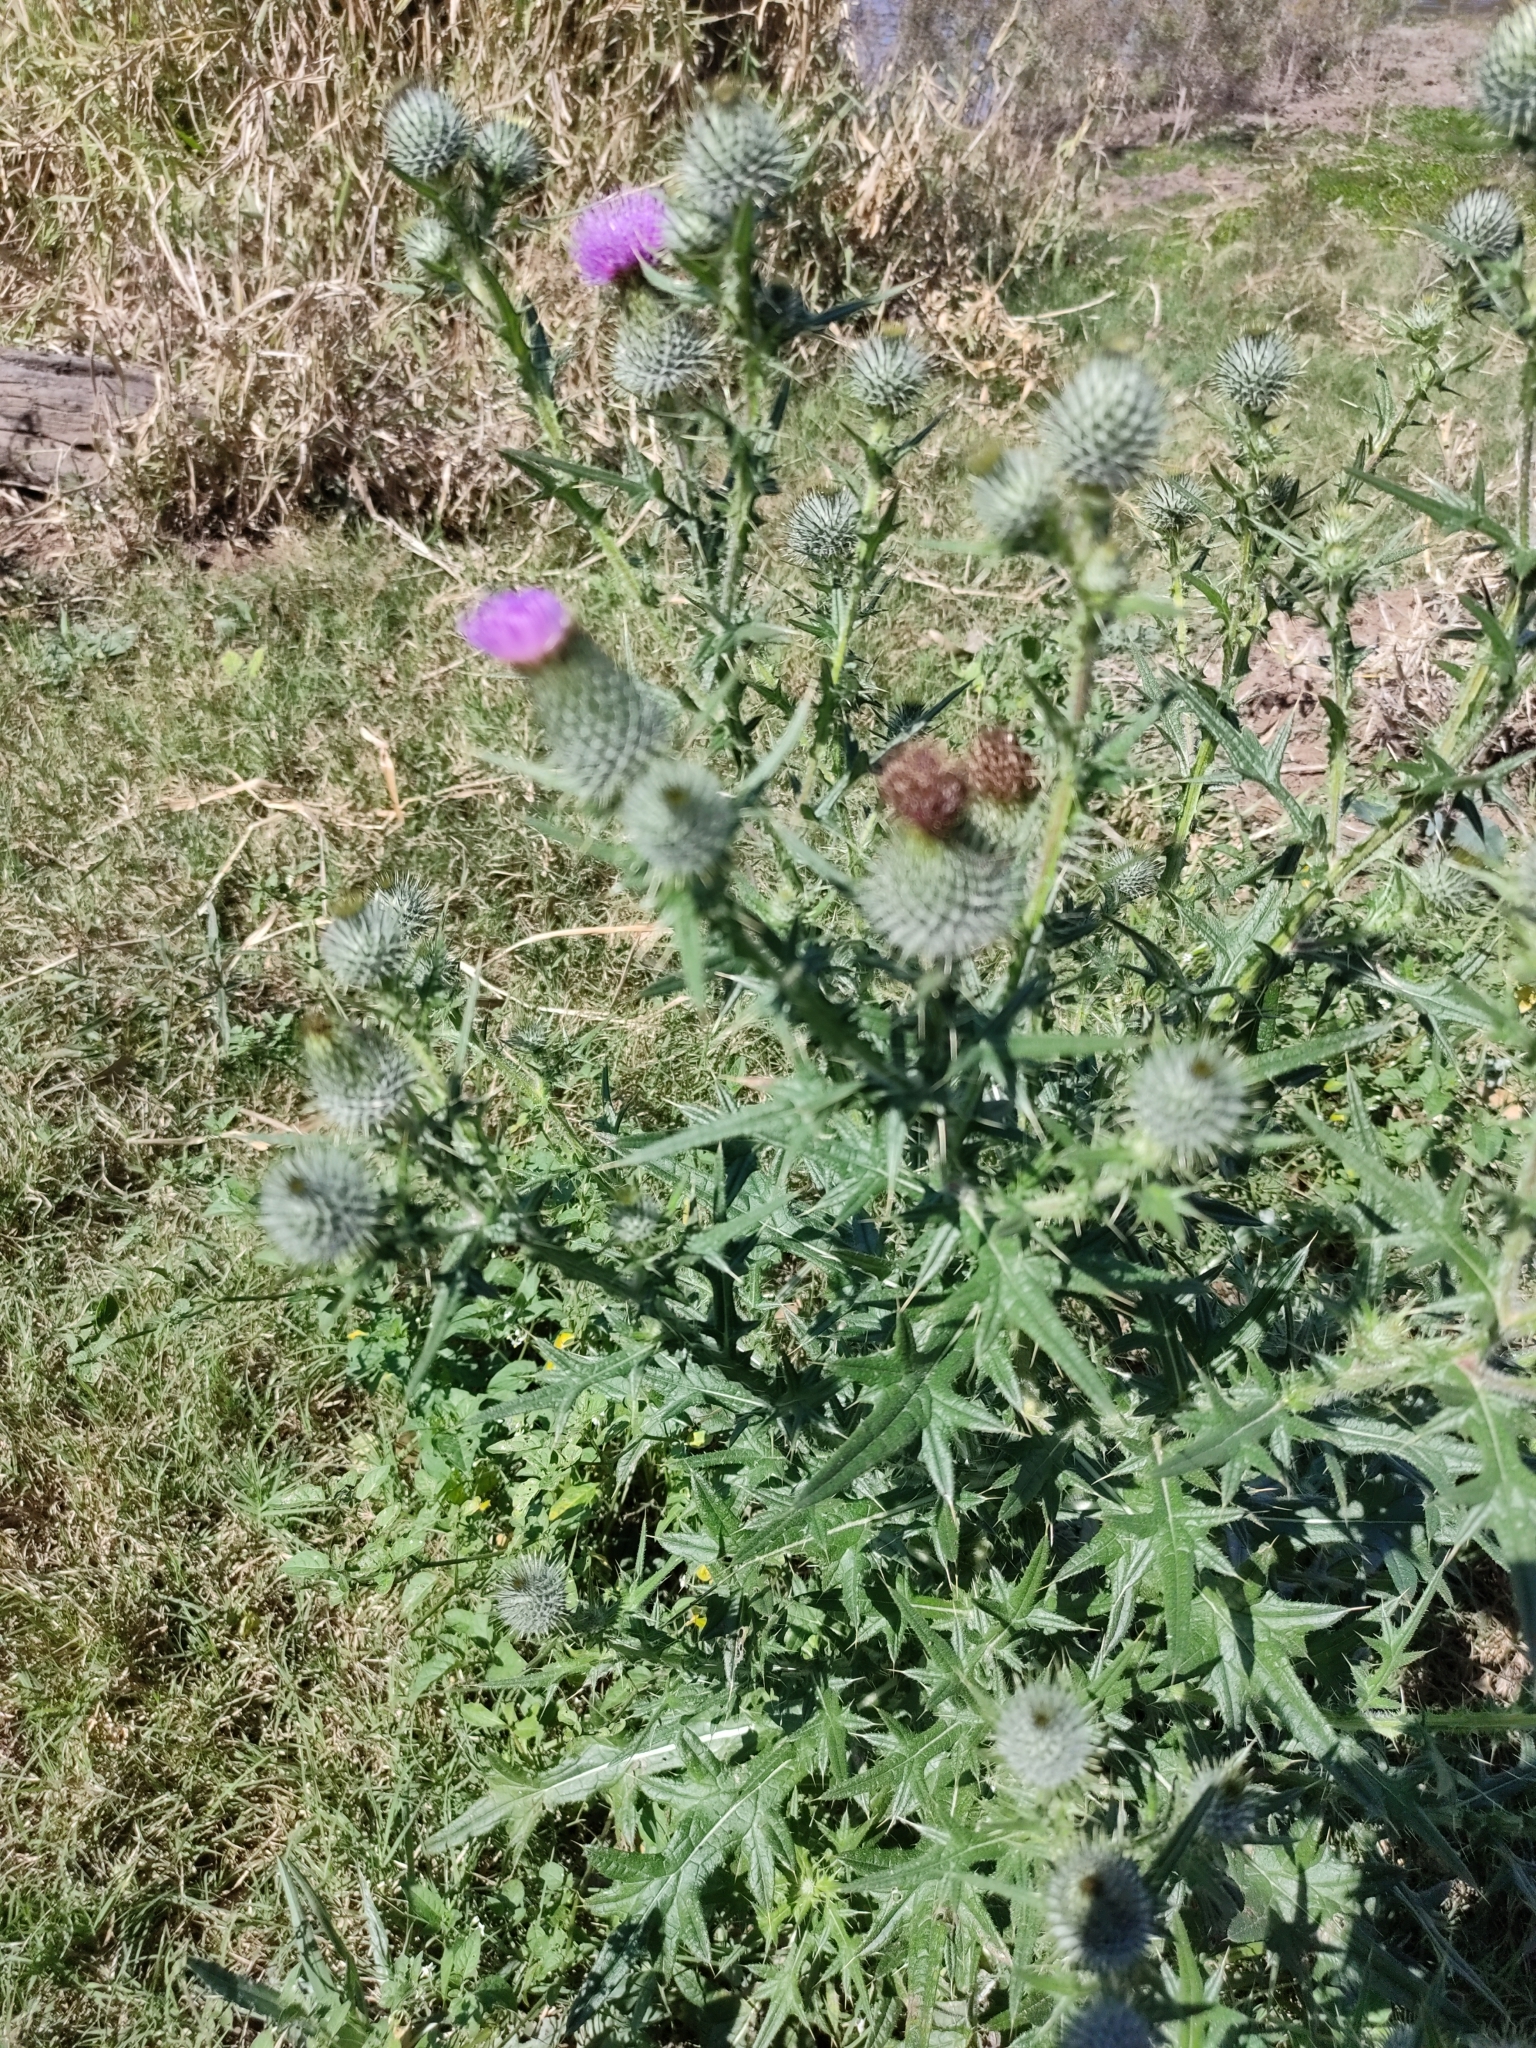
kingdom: Plantae
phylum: Tracheophyta
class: Magnoliopsida
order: Asterales
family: Asteraceae
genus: Cirsium
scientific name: Cirsium vulgare
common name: Bull thistle
